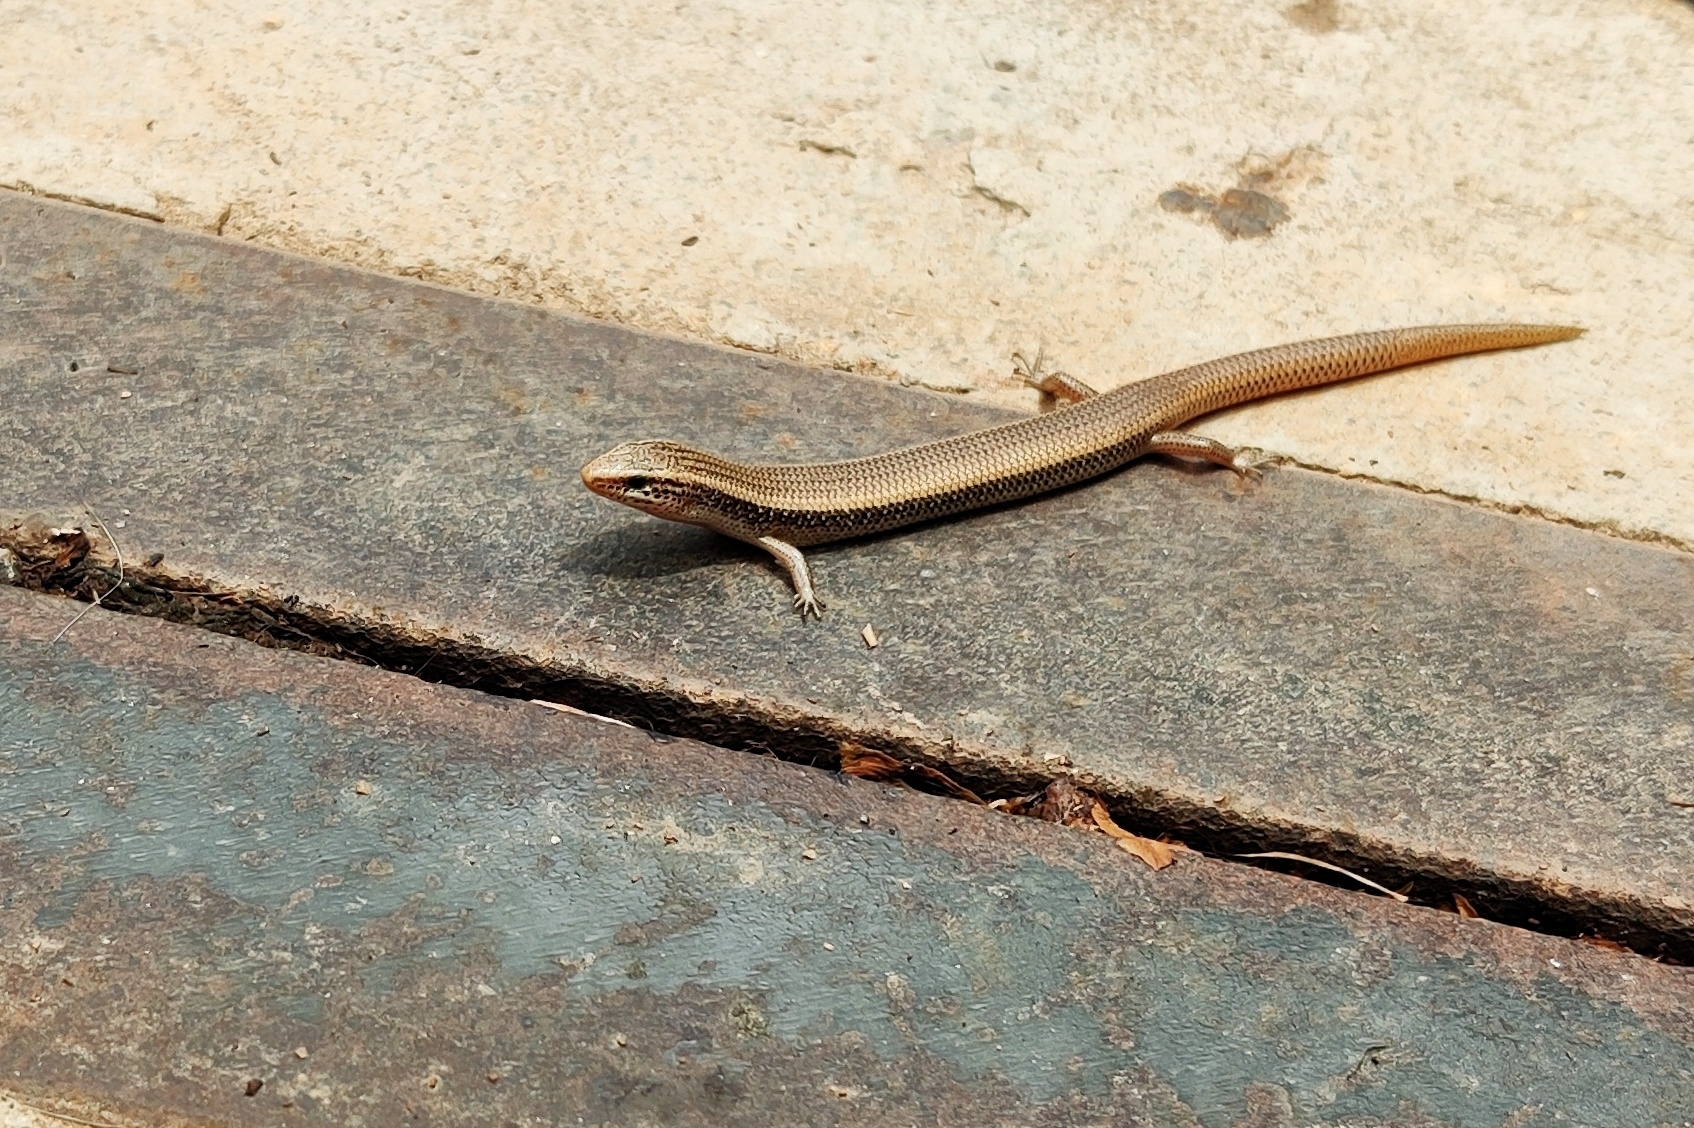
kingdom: Animalia
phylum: Chordata
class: Squamata
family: Scincidae
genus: Riopa
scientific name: Riopa punctata
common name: Common dotted garden skink
